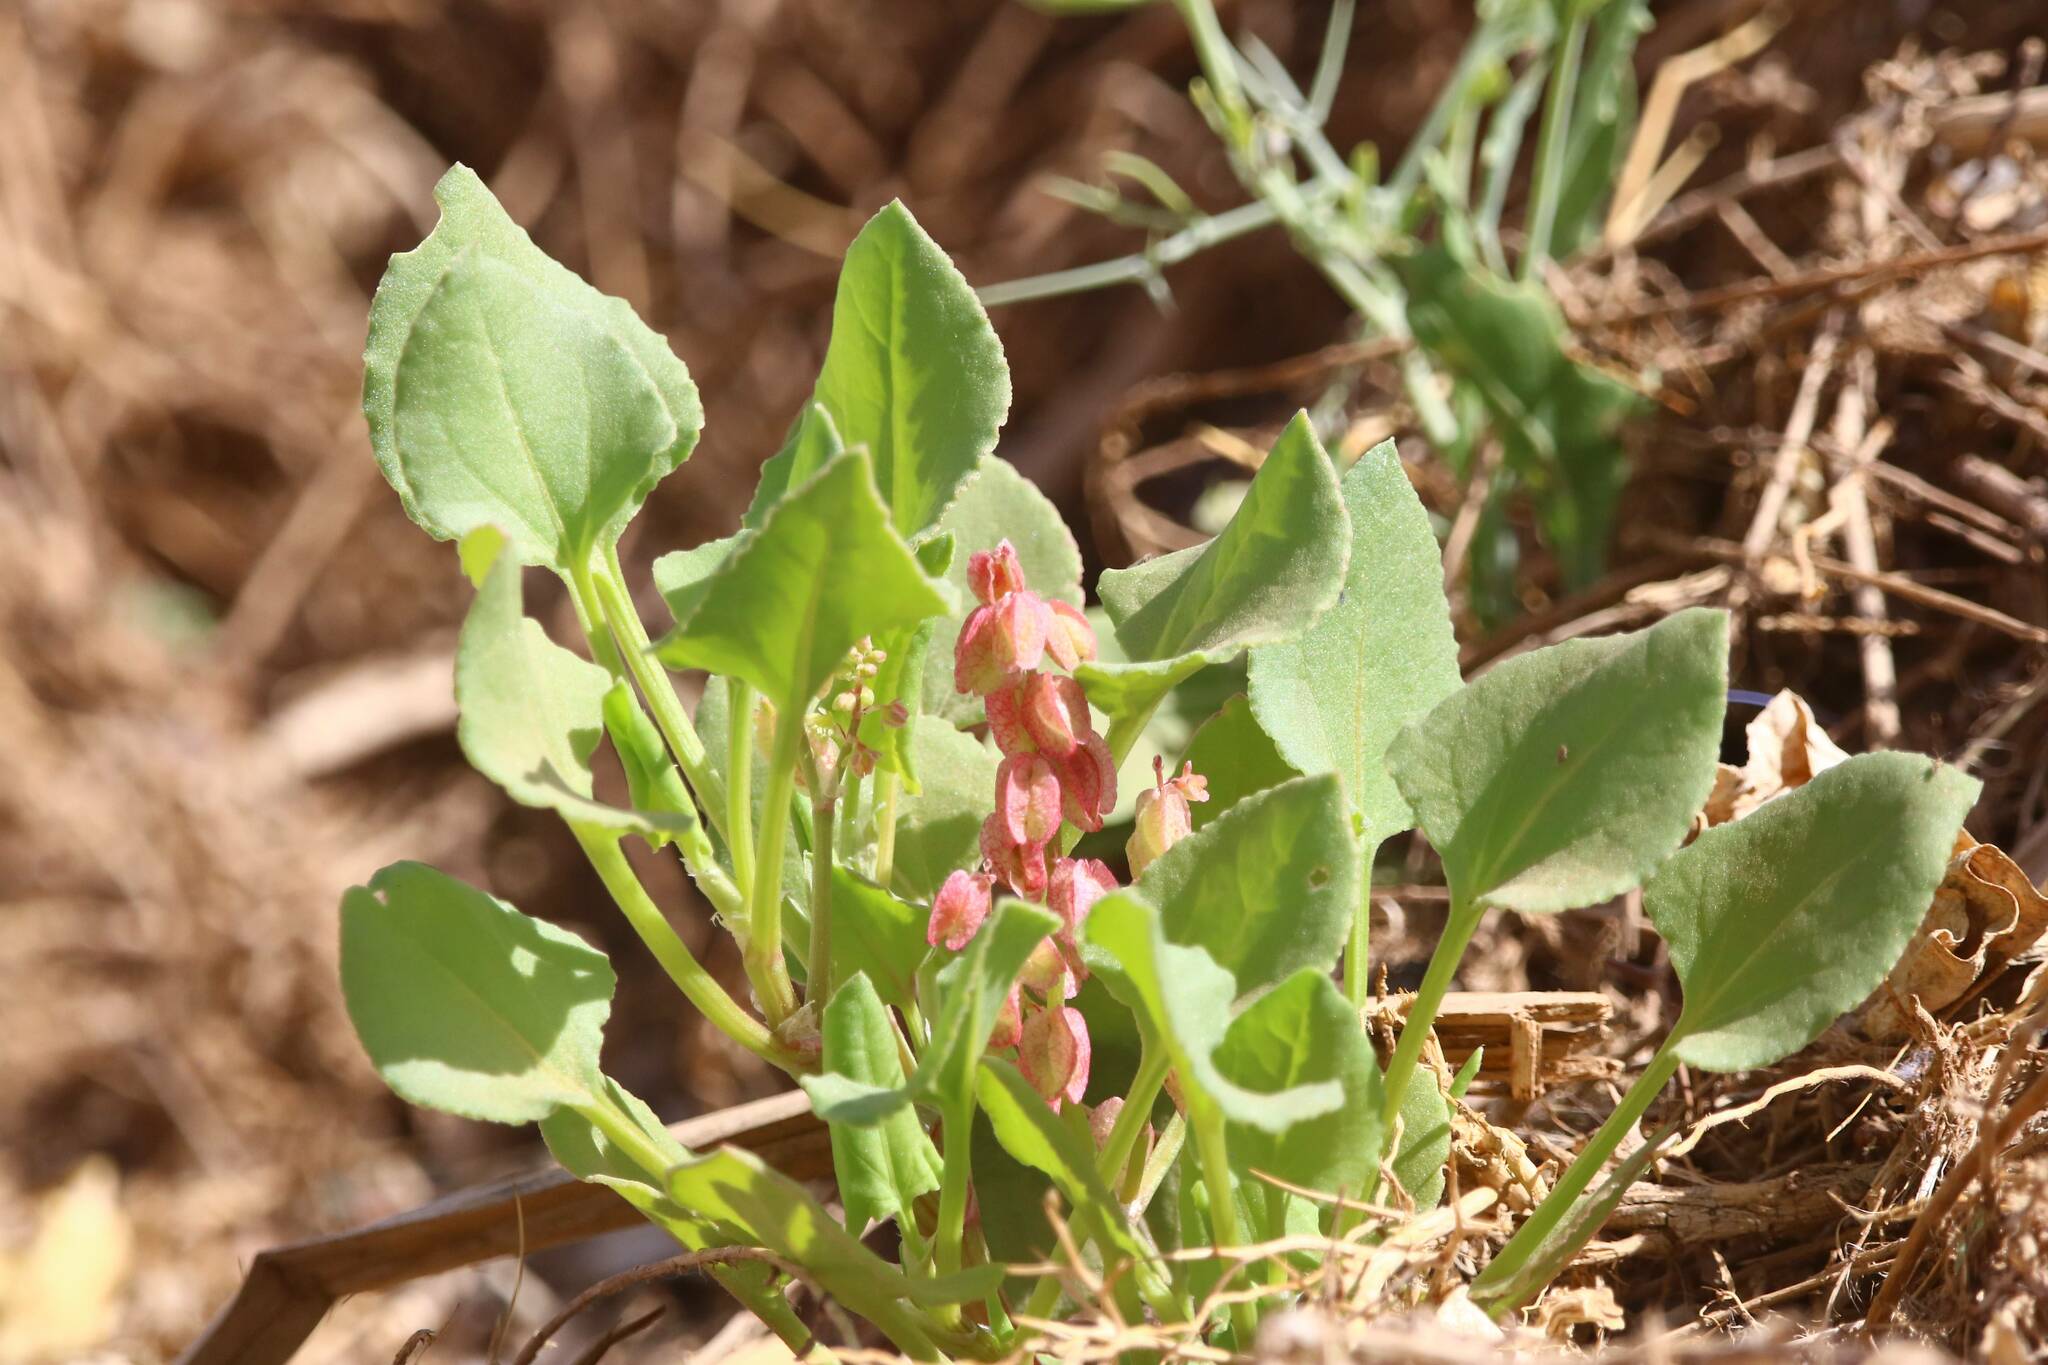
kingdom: Plantae
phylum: Tracheophyta
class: Magnoliopsida
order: Caryophyllales
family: Polygonaceae
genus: Rumex
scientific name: Rumex vesicarius
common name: Bladder dock
